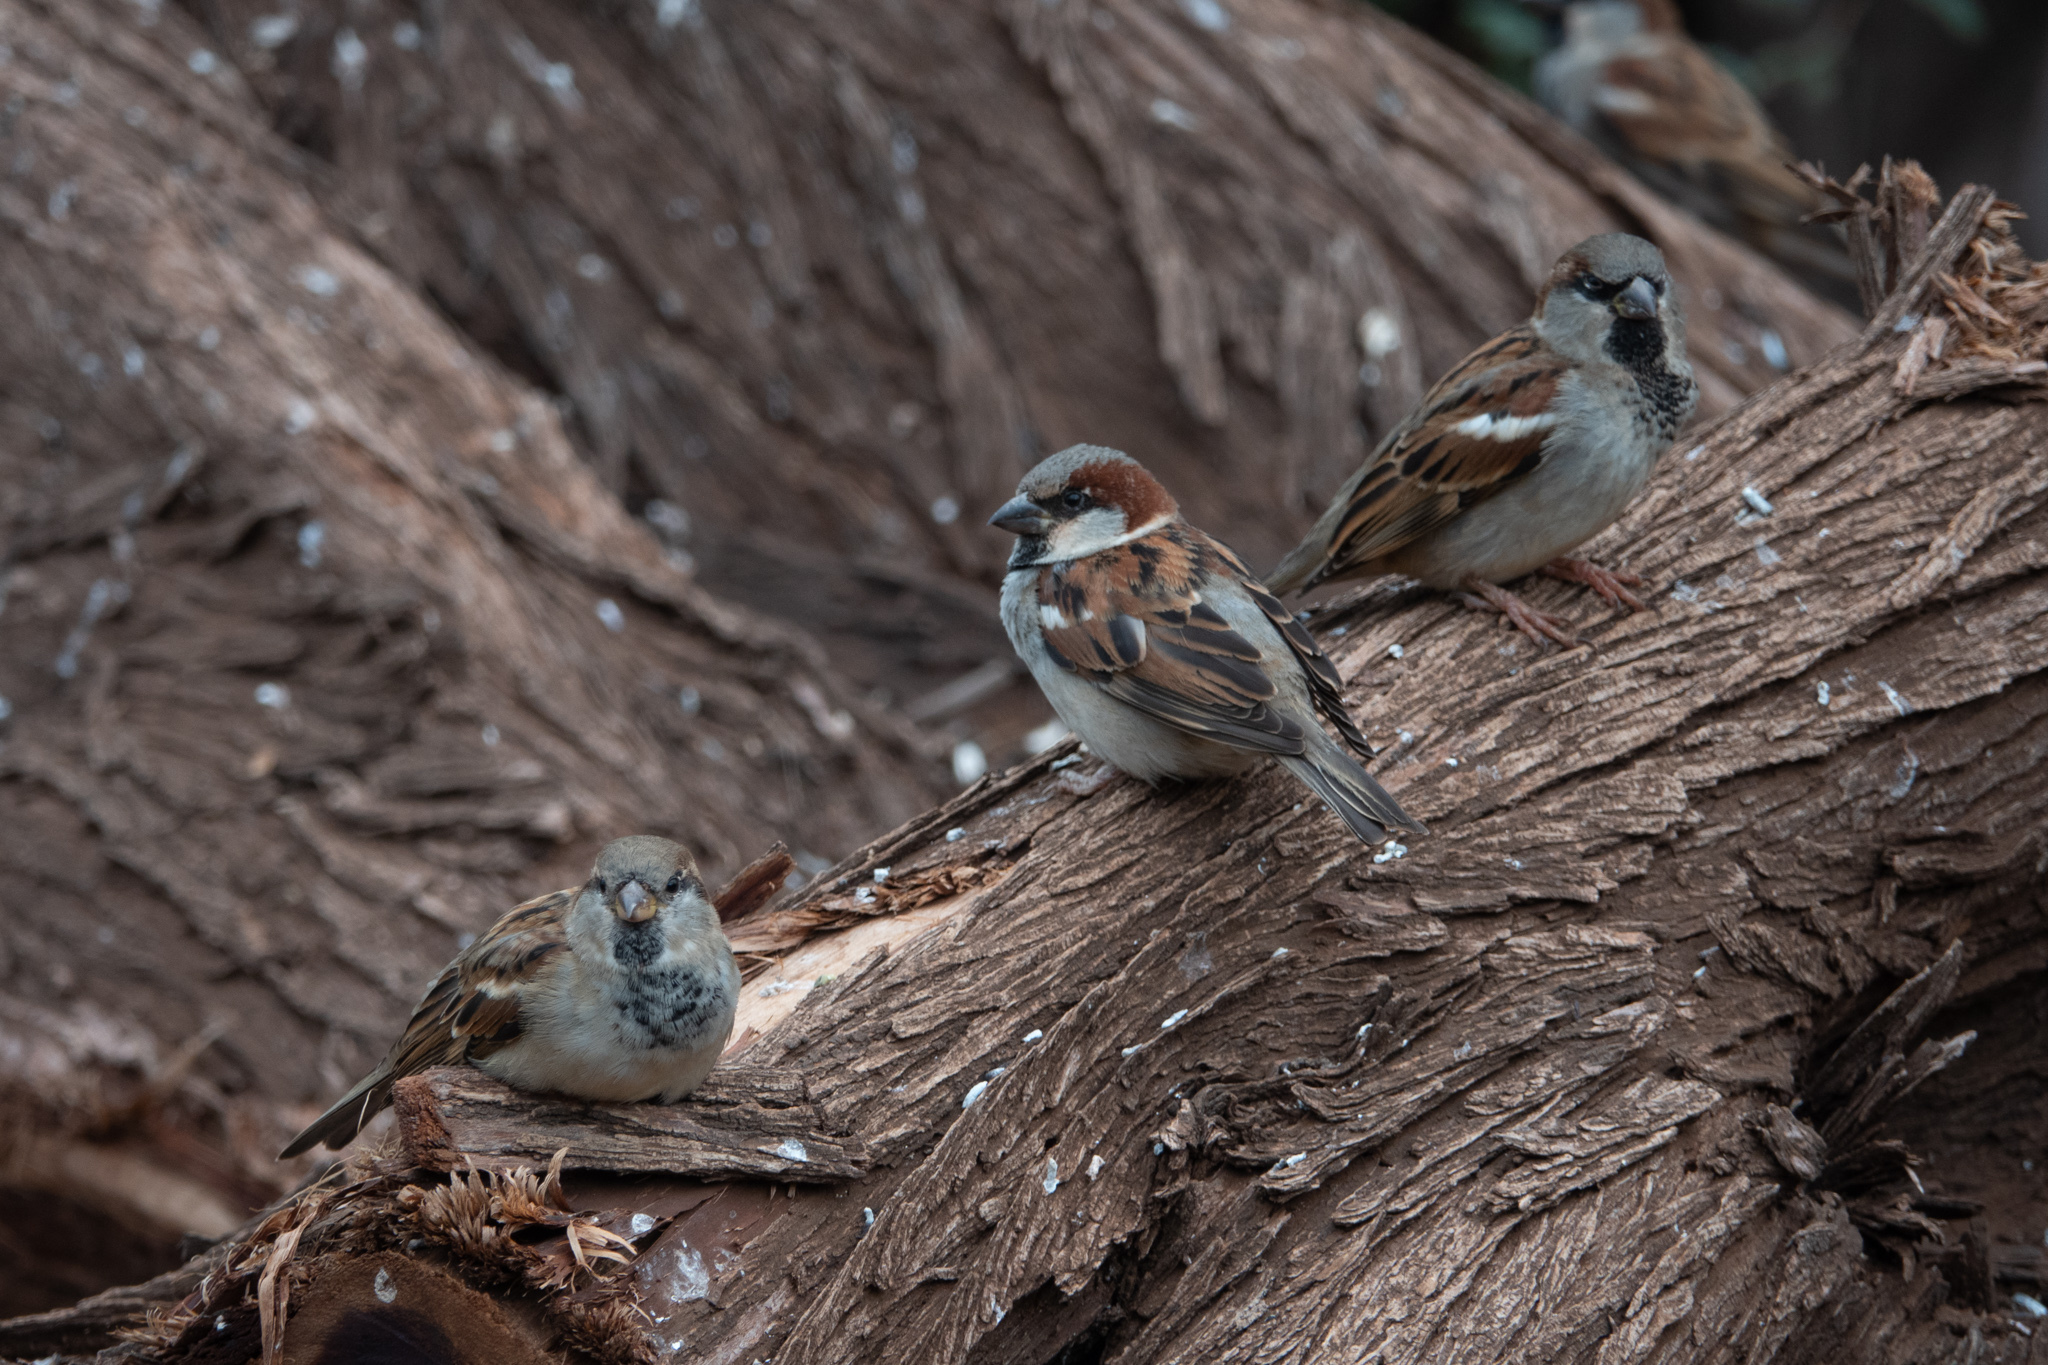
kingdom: Animalia
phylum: Chordata
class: Aves
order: Passeriformes
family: Passeridae
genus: Passer
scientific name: Passer domesticus
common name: House sparrow
